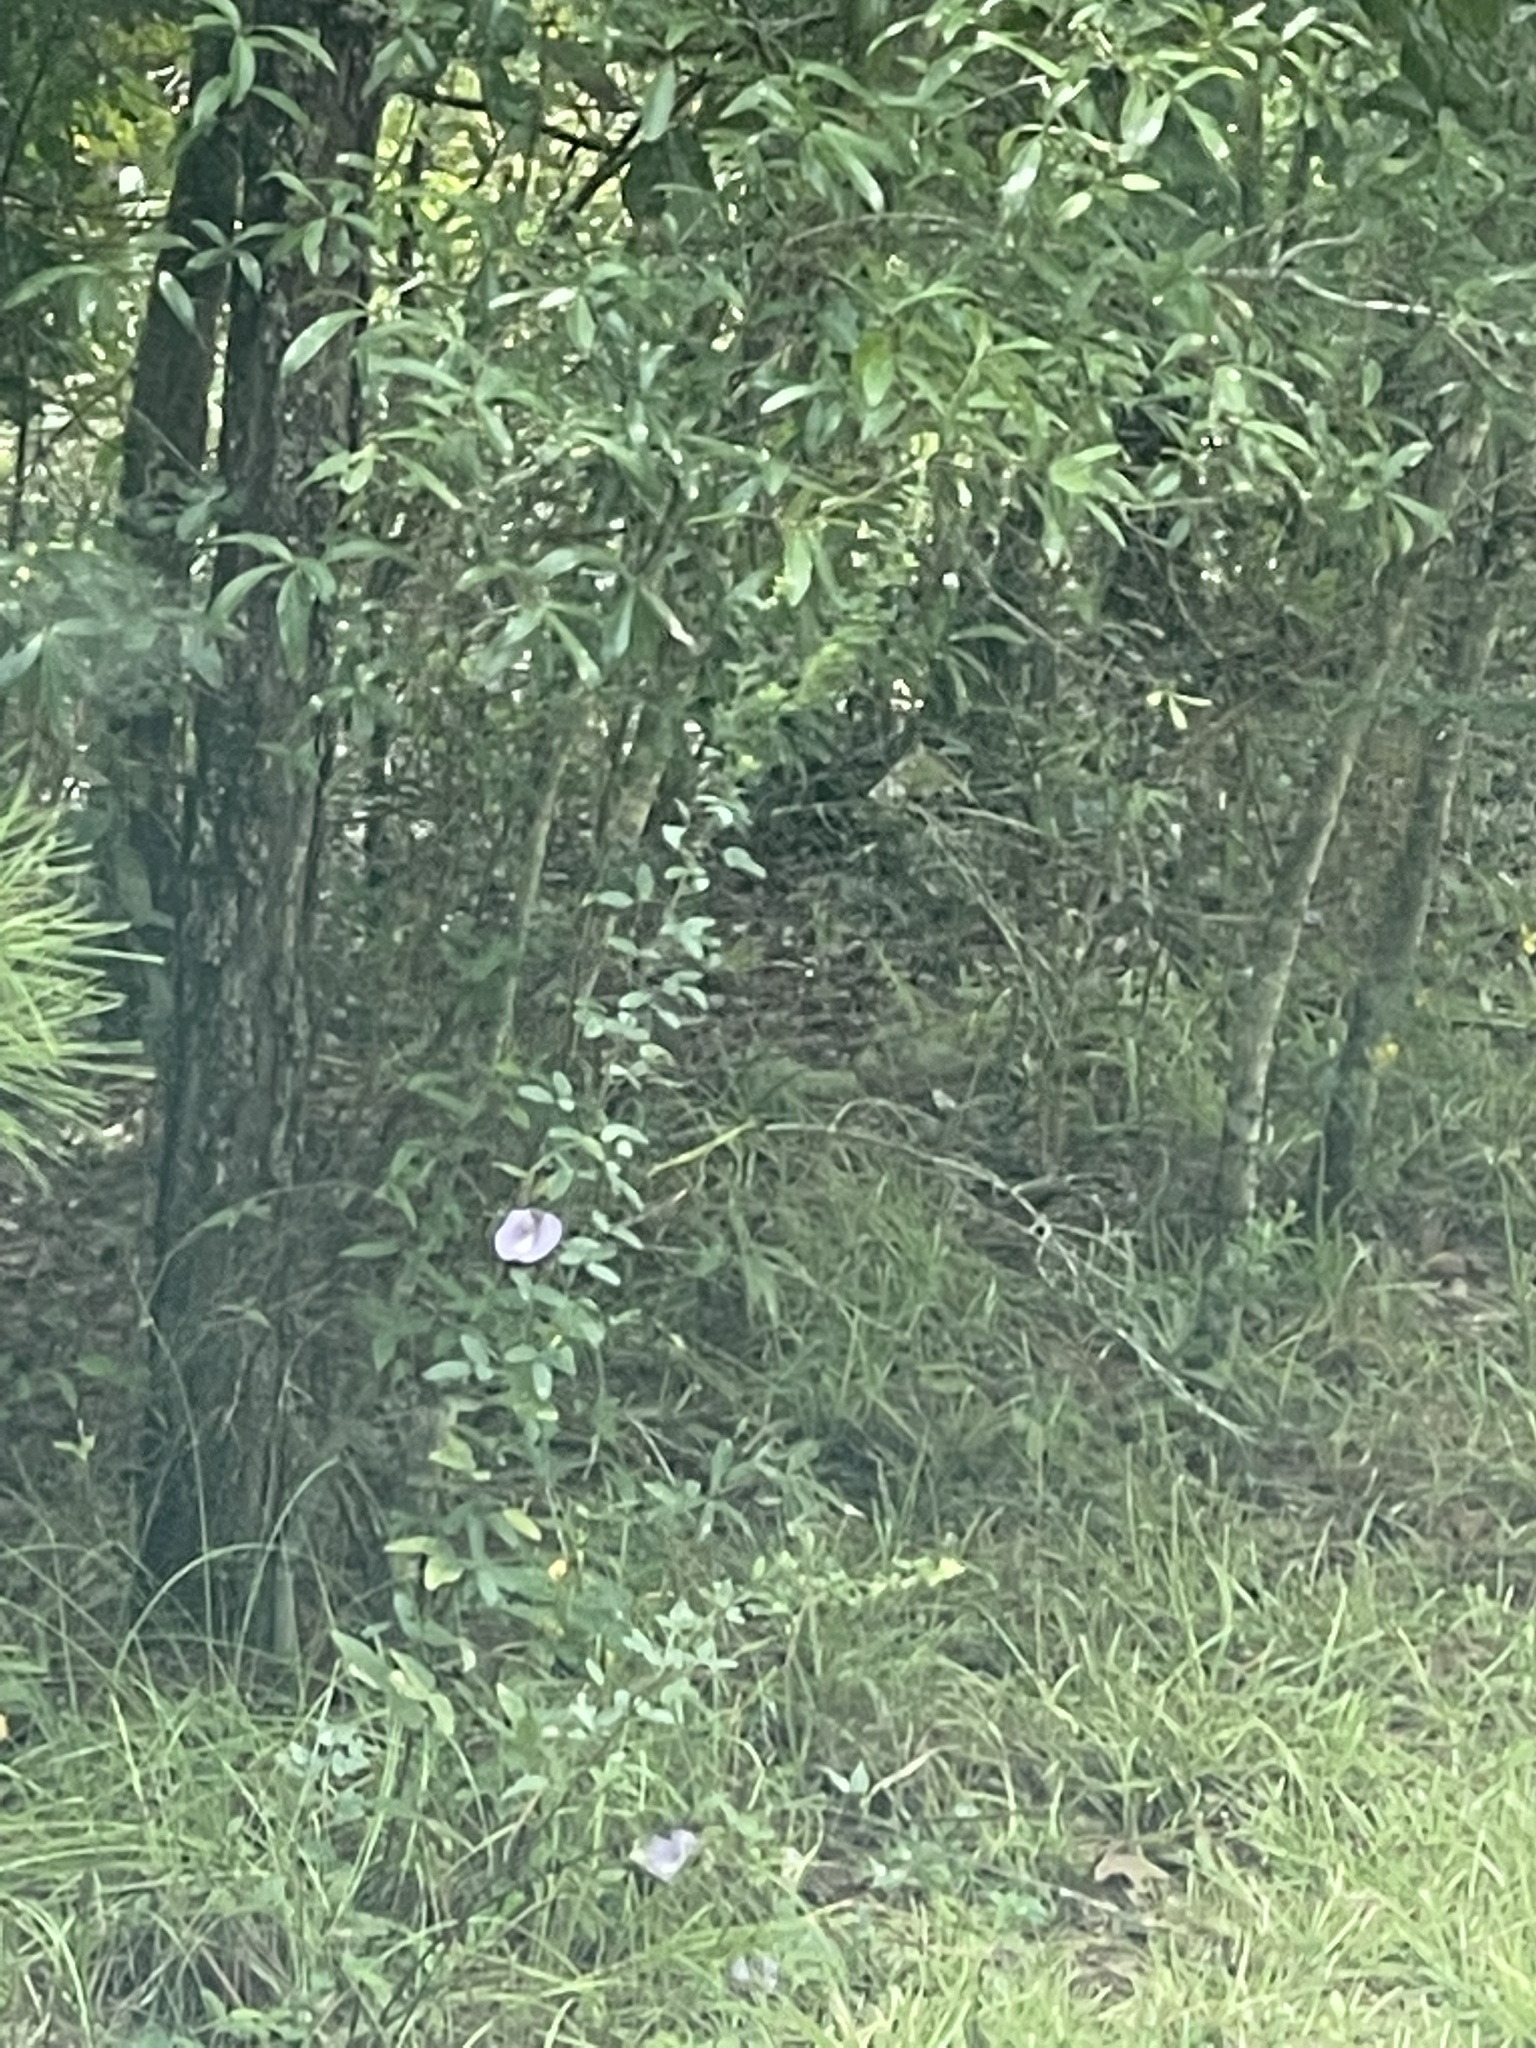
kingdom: Plantae
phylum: Tracheophyta
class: Magnoliopsida
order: Fabales
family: Fabaceae
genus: Centrosema
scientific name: Centrosema virginianum
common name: Butterfly-pea
